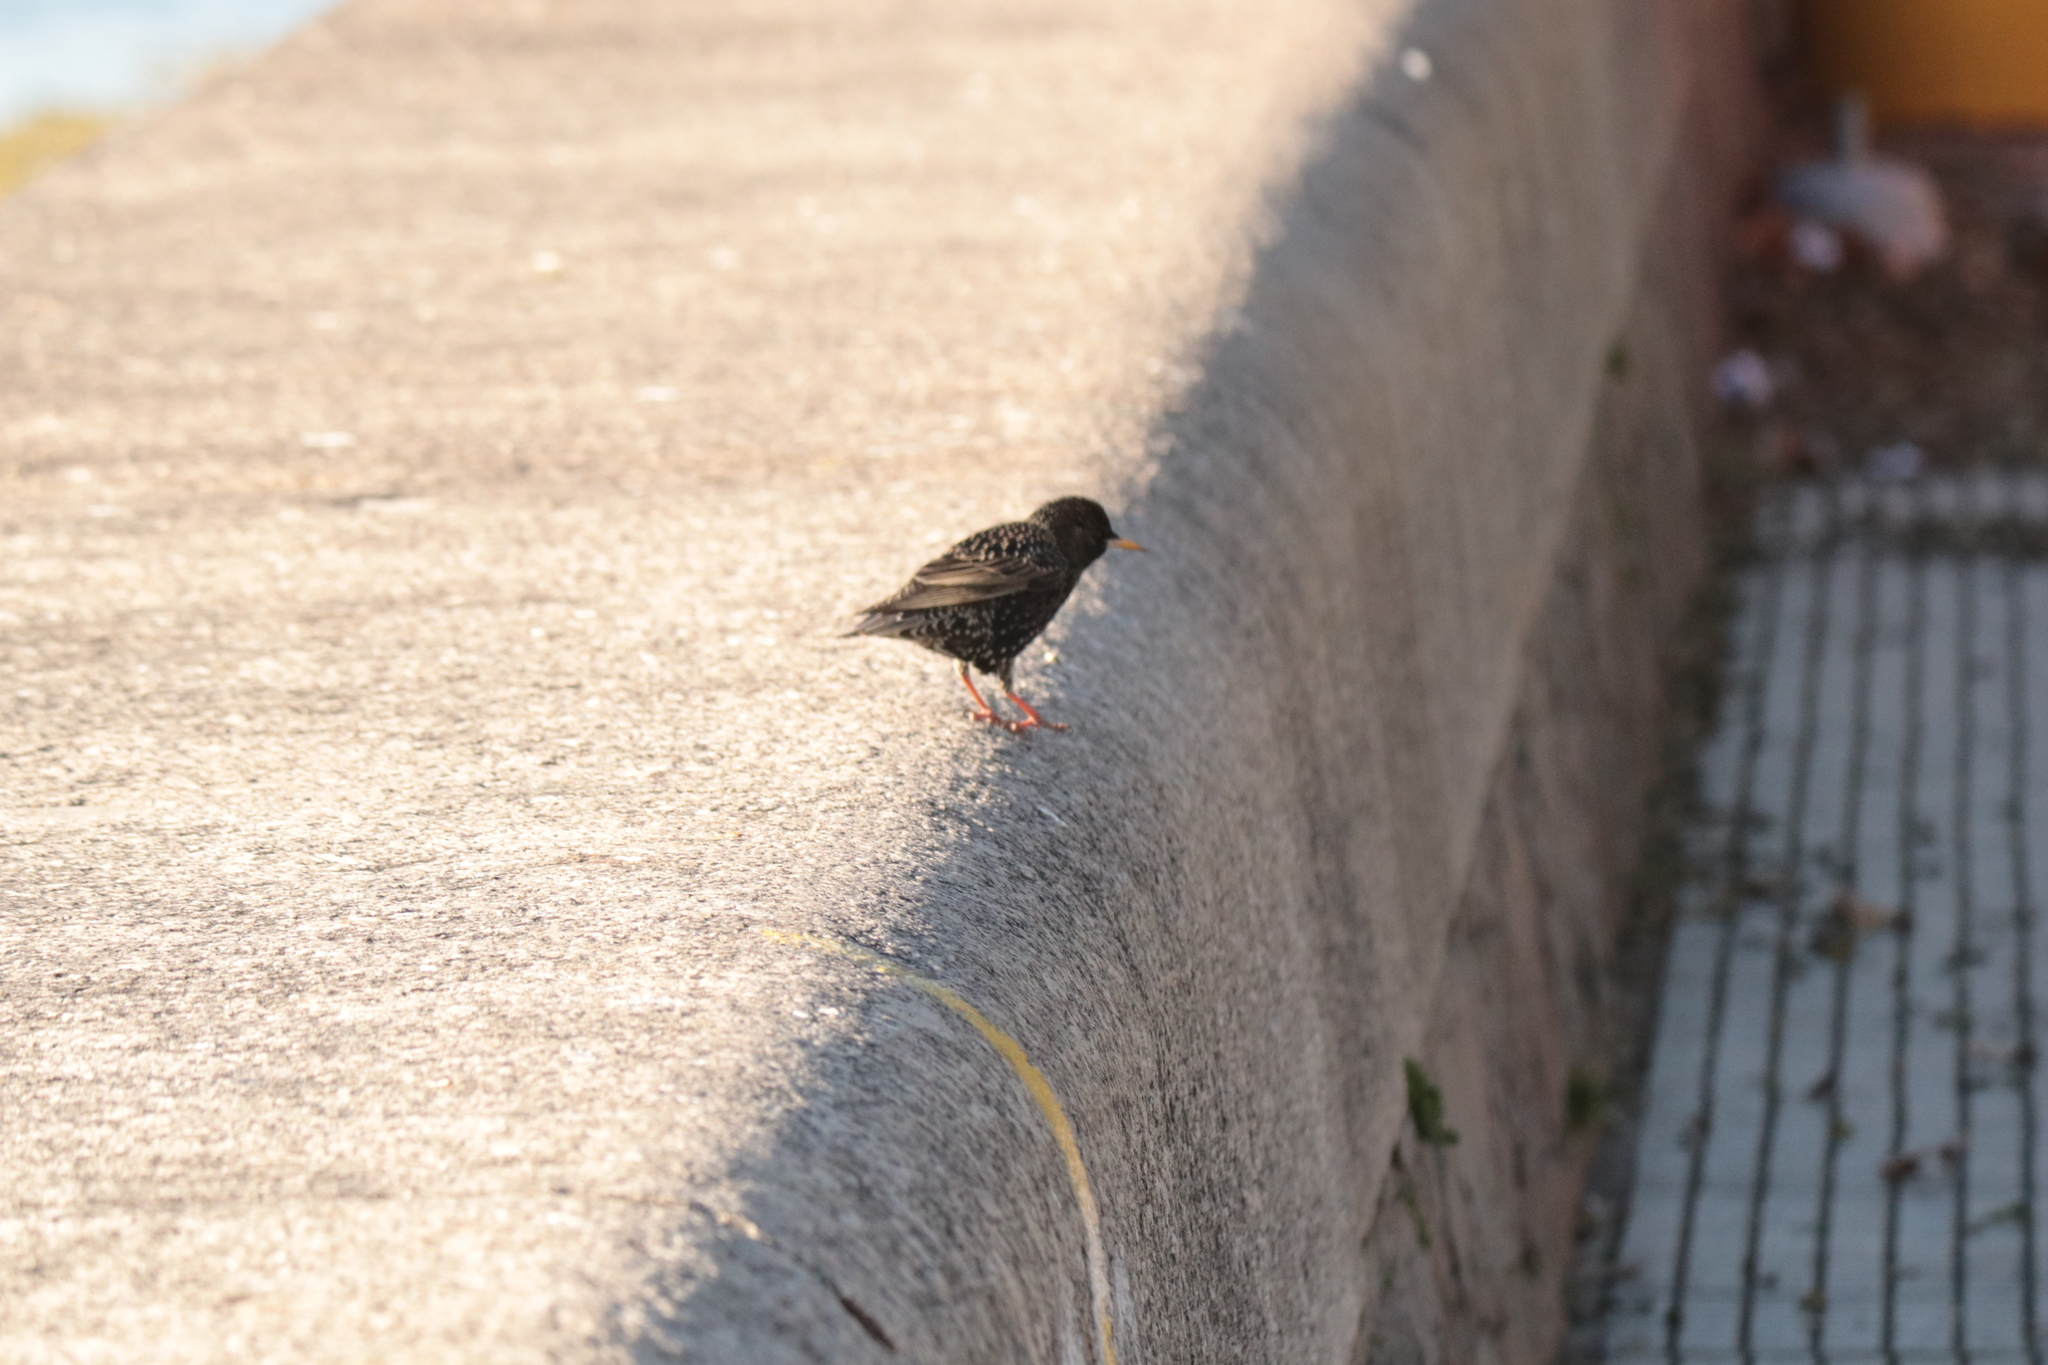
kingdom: Animalia
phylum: Chordata
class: Aves
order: Passeriformes
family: Sturnidae
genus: Sturnus
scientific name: Sturnus vulgaris
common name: Common starling
